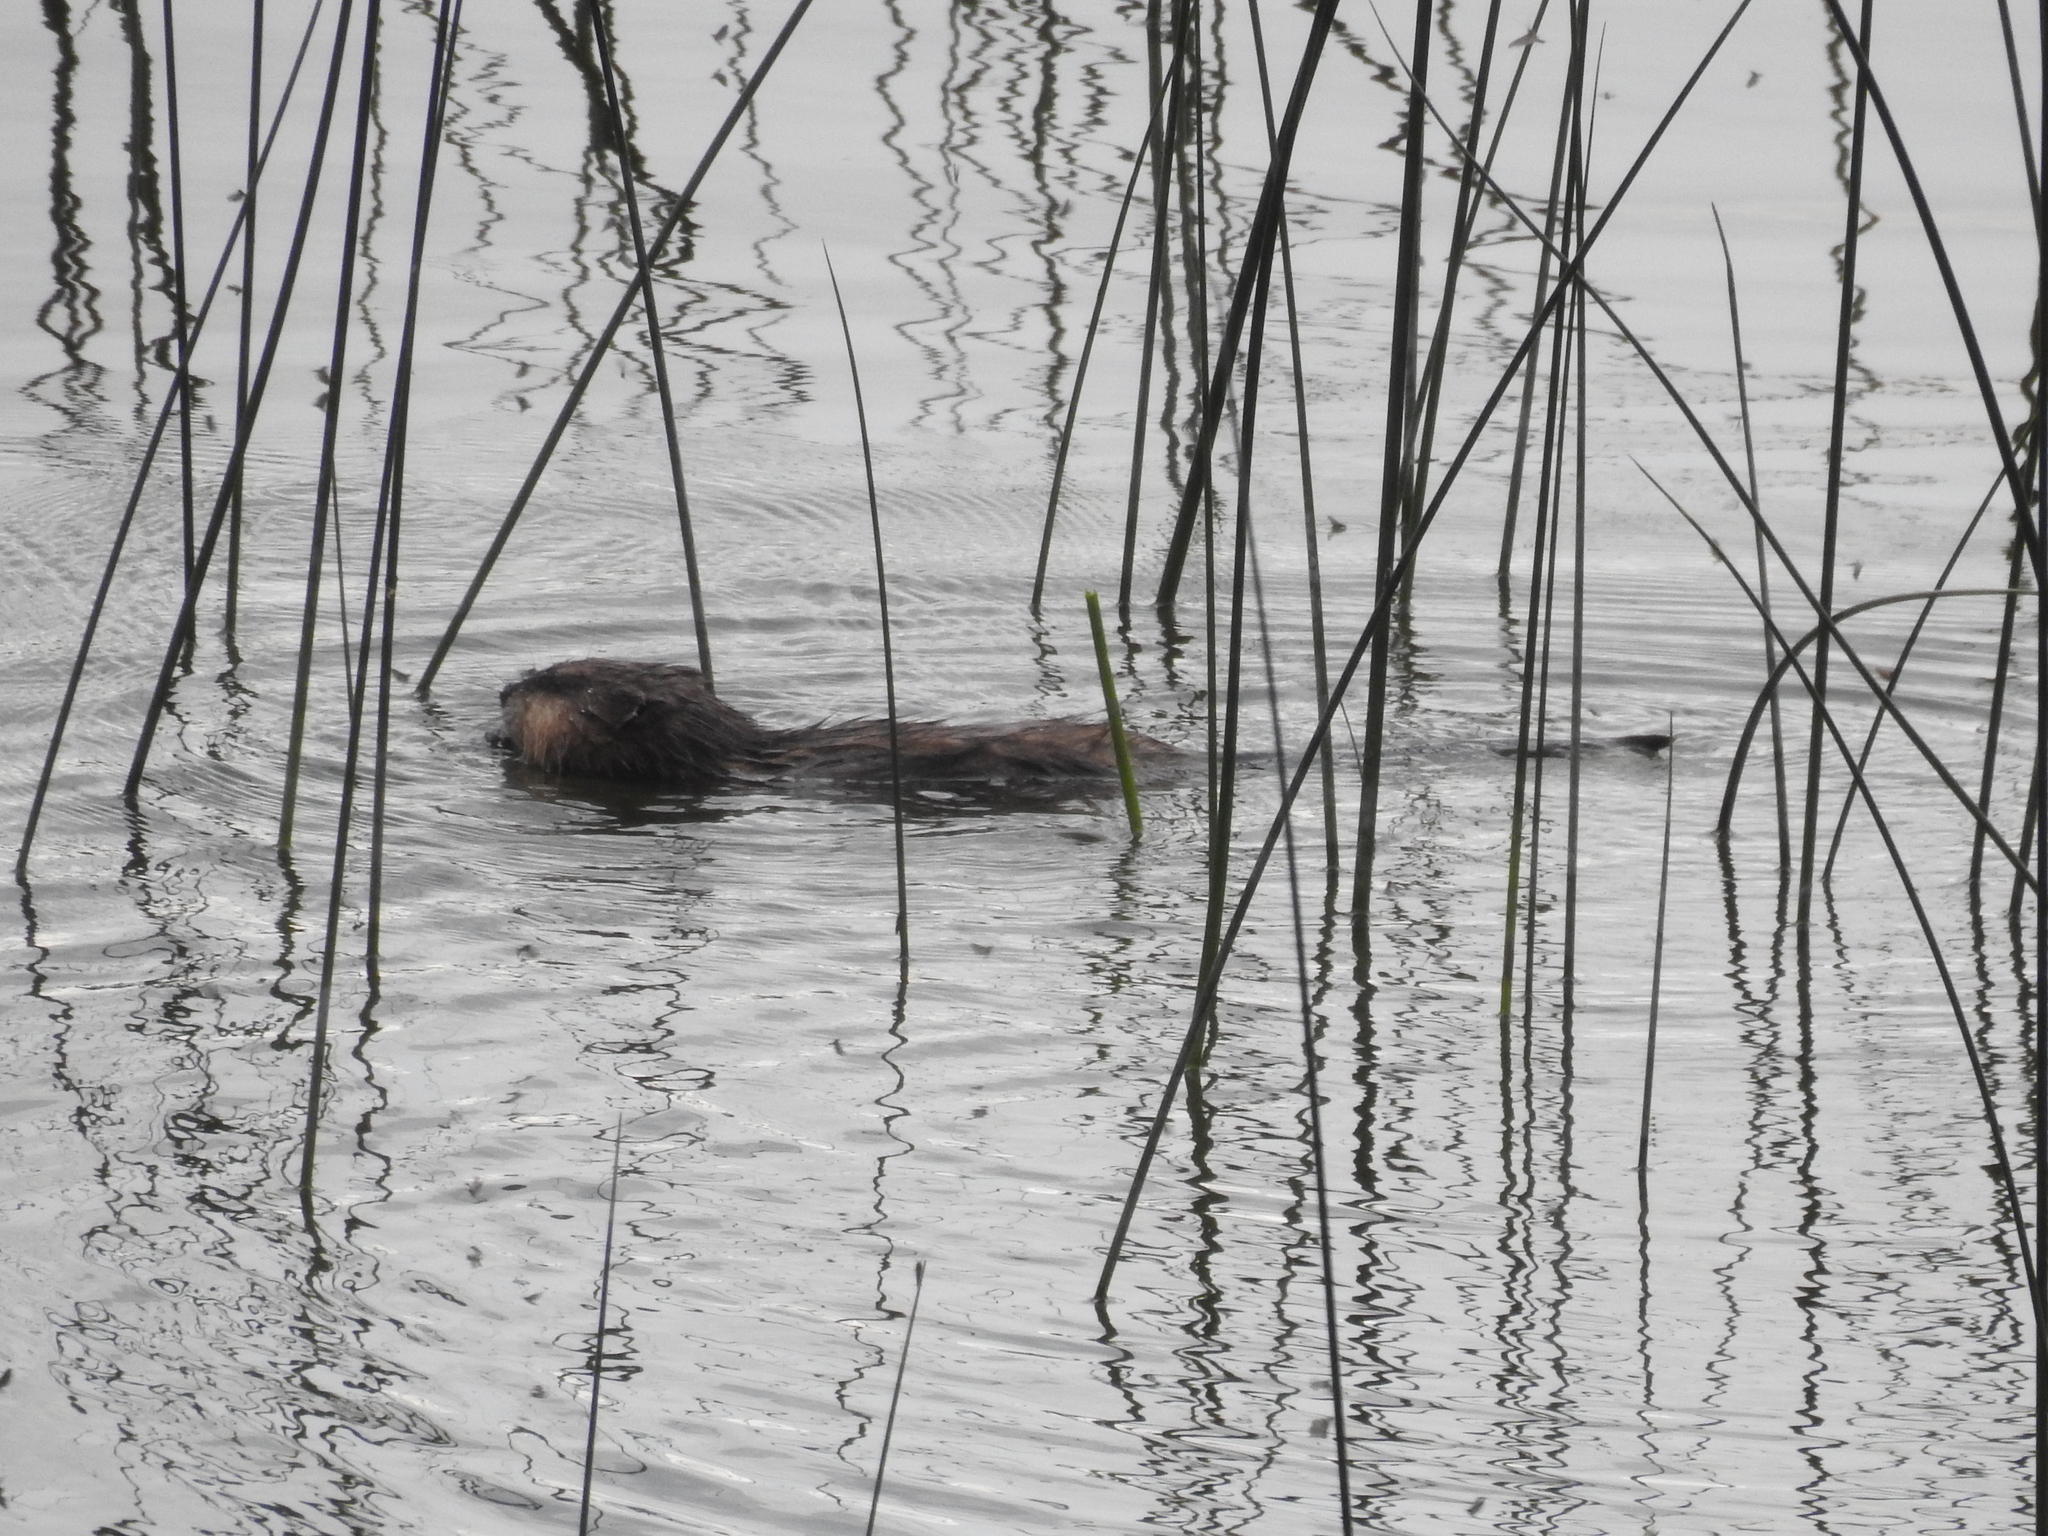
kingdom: Animalia
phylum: Chordata
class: Mammalia
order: Rodentia
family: Cricetidae
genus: Ondatra
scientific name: Ondatra zibethicus
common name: Muskrat
